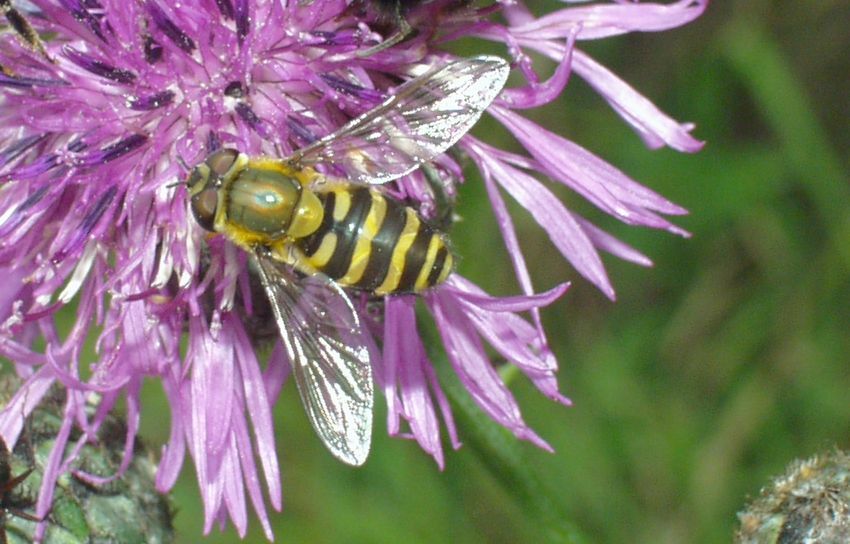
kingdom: Animalia
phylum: Arthropoda
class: Insecta
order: Diptera
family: Syrphidae
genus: Syrphus
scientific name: Syrphus
